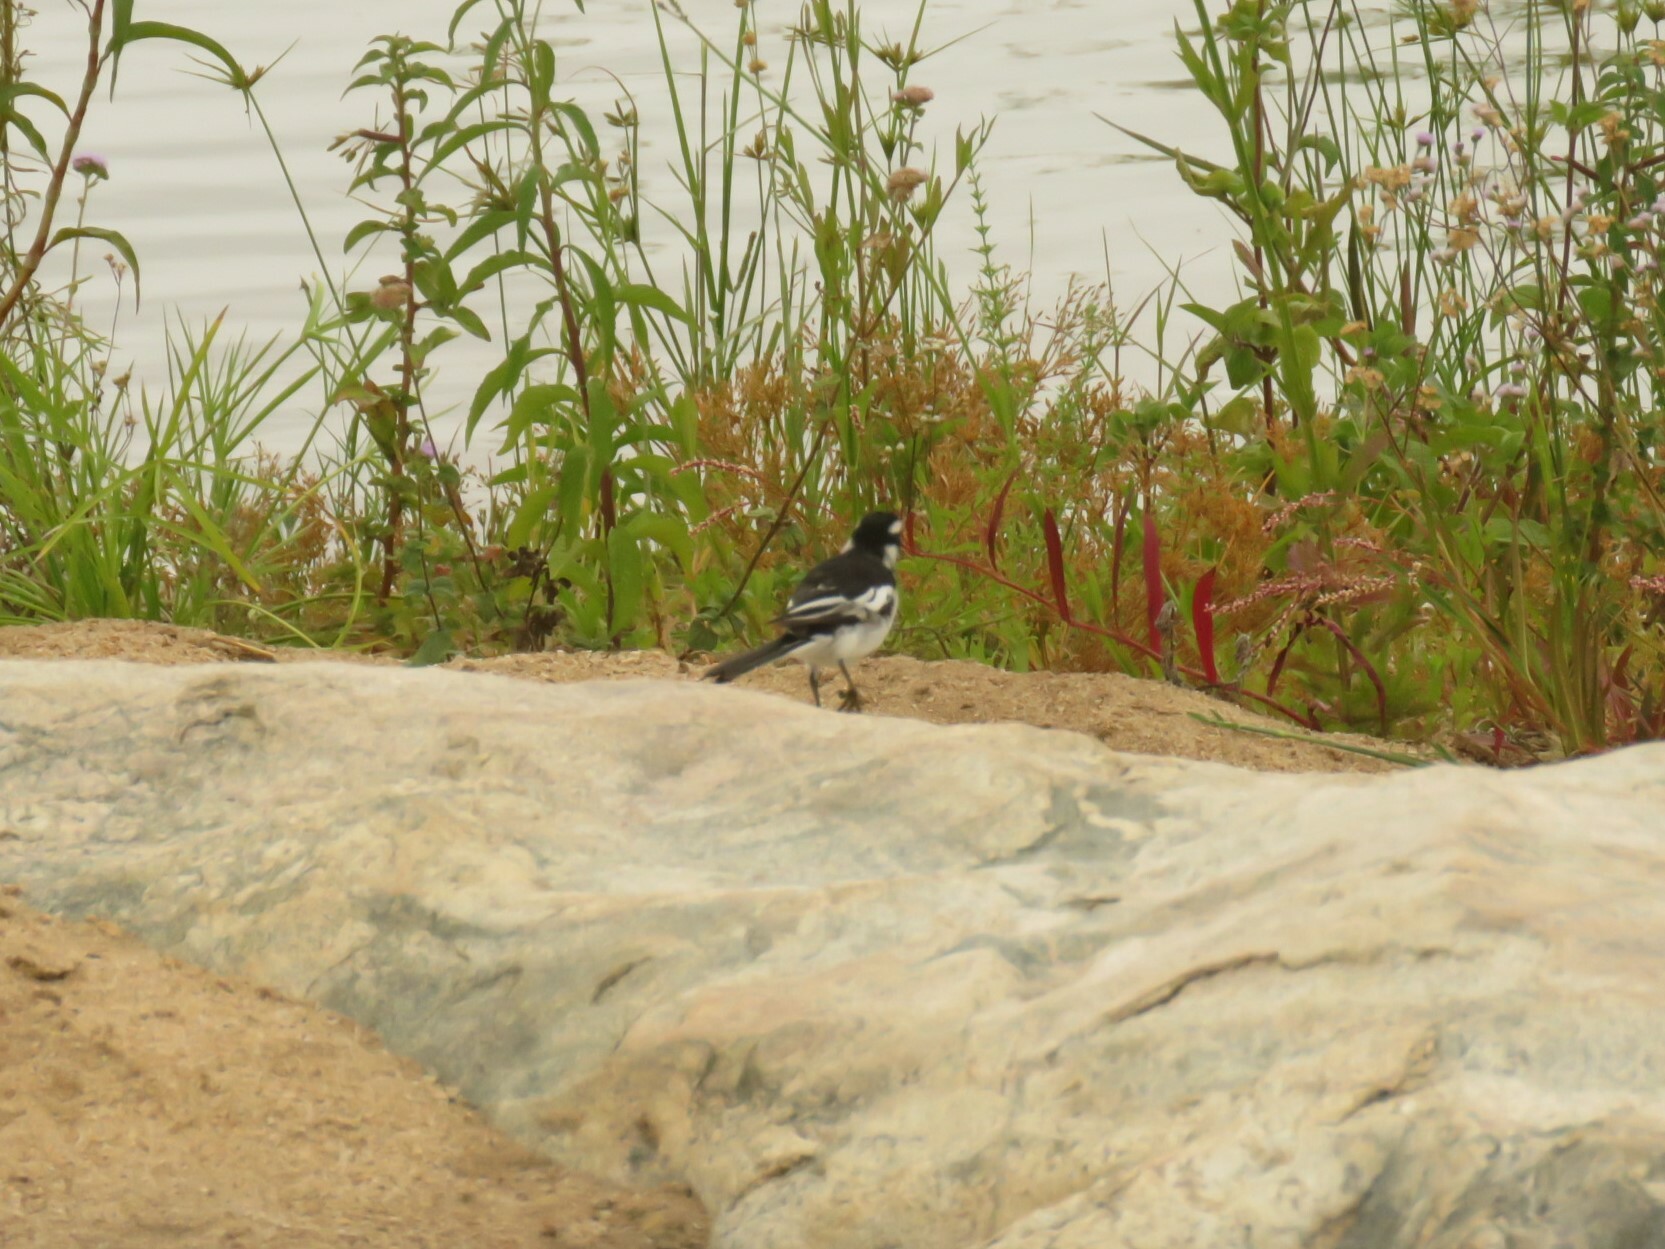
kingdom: Animalia
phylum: Chordata
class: Aves
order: Passeriformes
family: Motacillidae
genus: Motacilla
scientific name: Motacilla aguimp
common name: African pied wagtail
